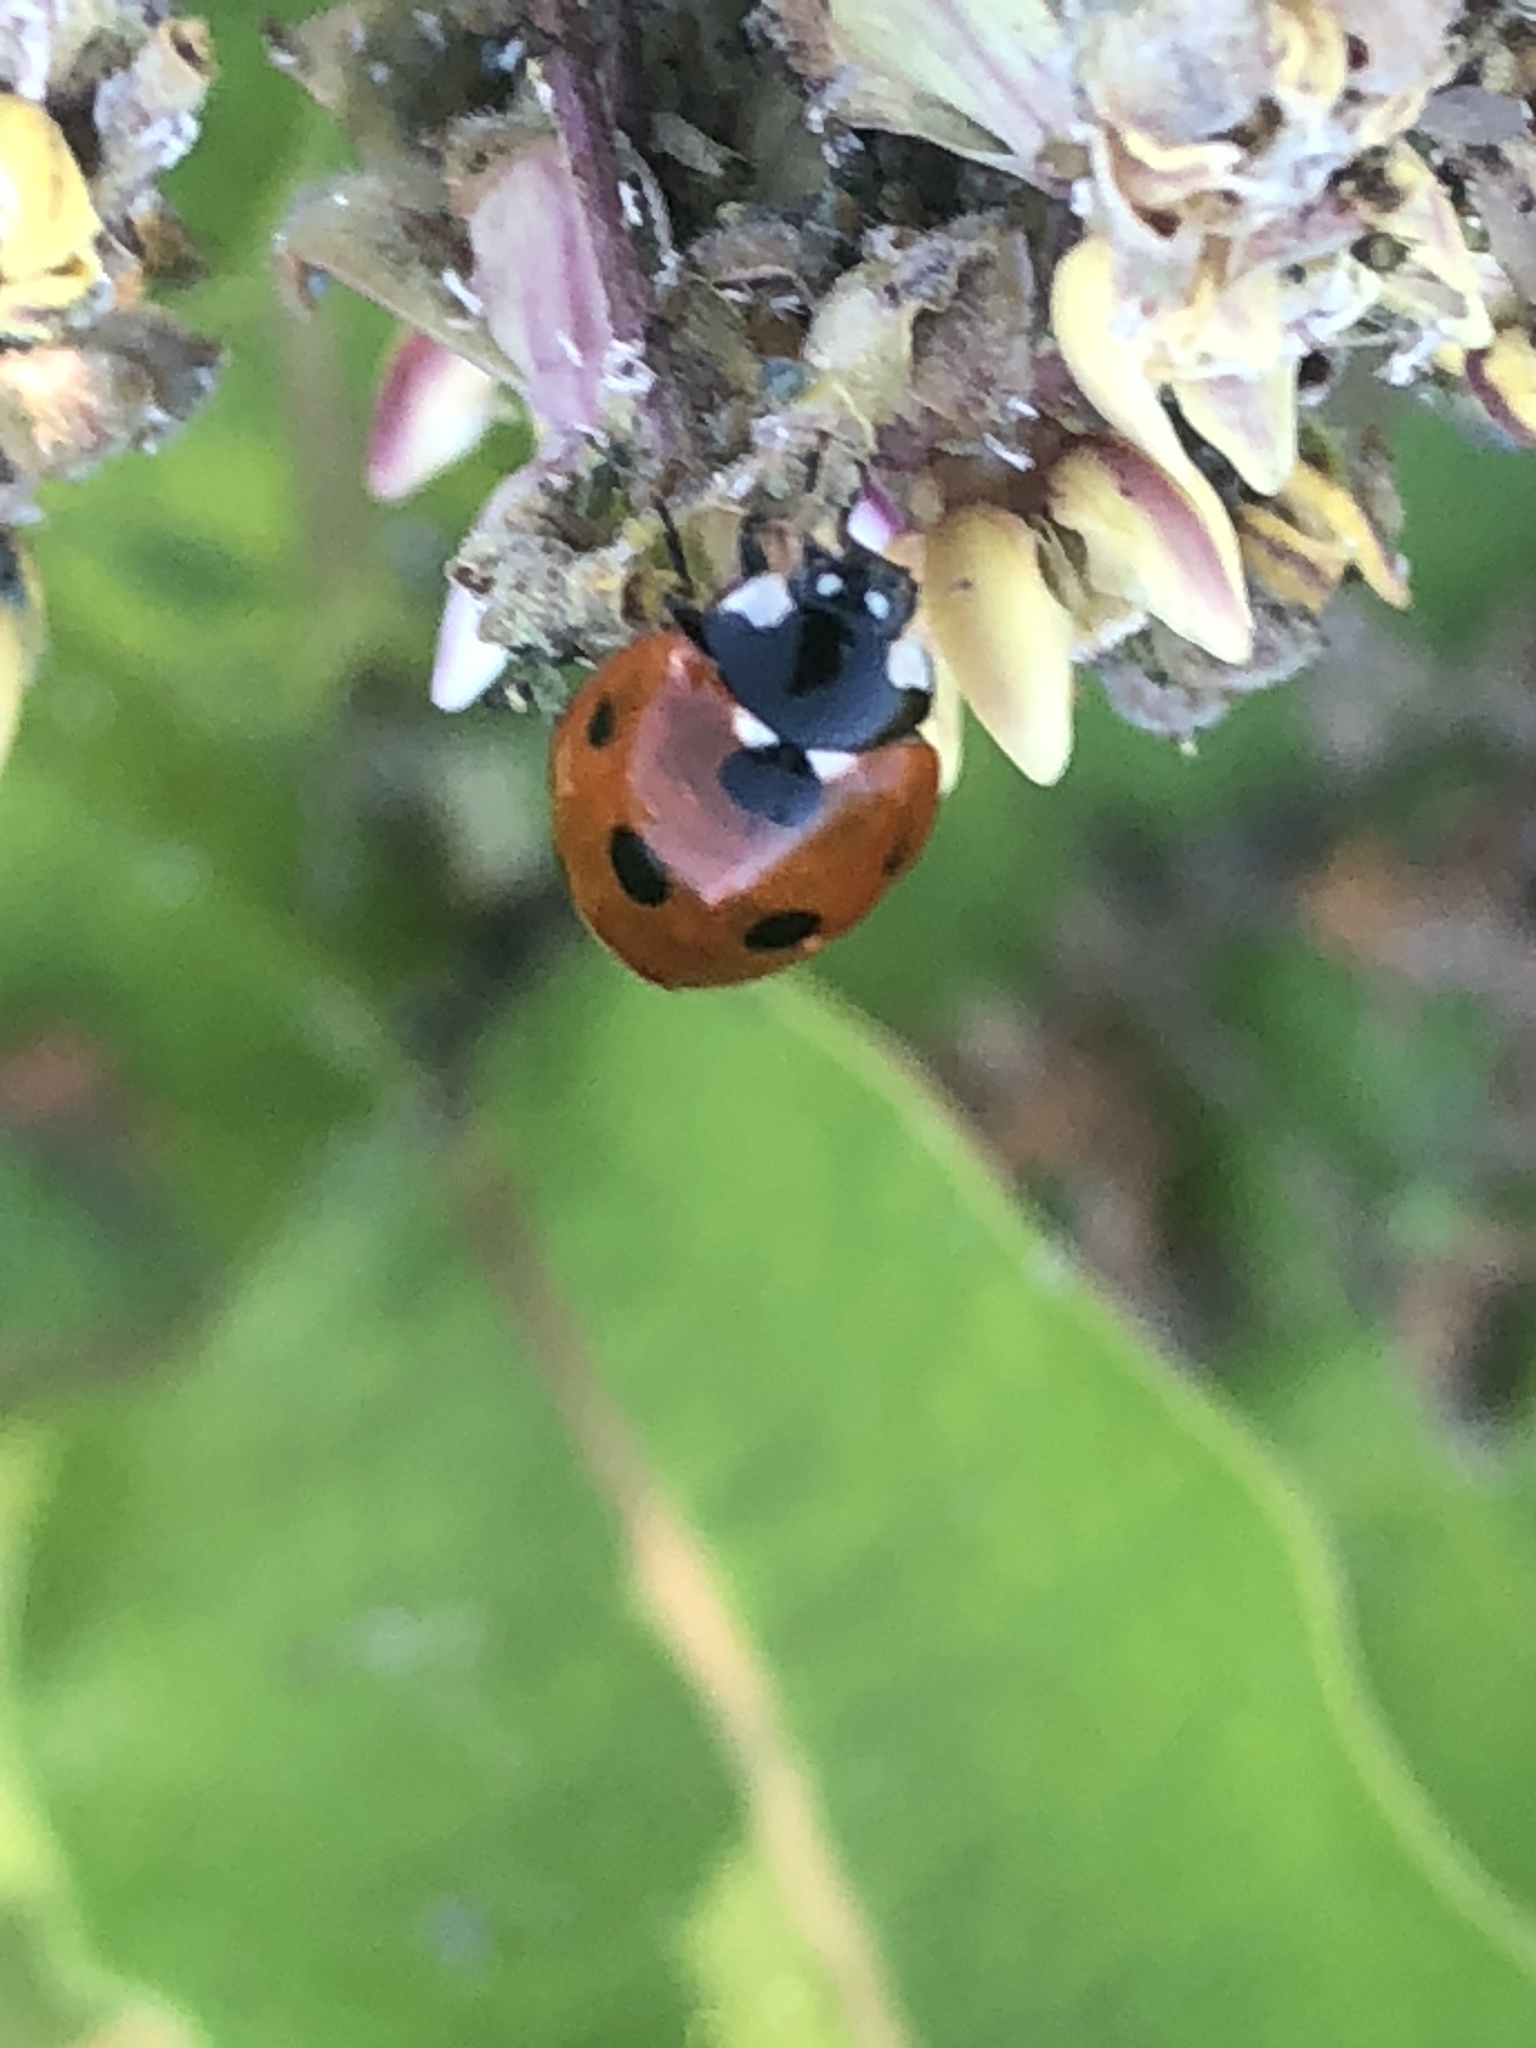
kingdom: Animalia
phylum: Arthropoda
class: Insecta
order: Coleoptera
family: Coccinellidae
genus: Coccinella
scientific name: Coccinella septempunctata
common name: Sevenspotted lady beetle
